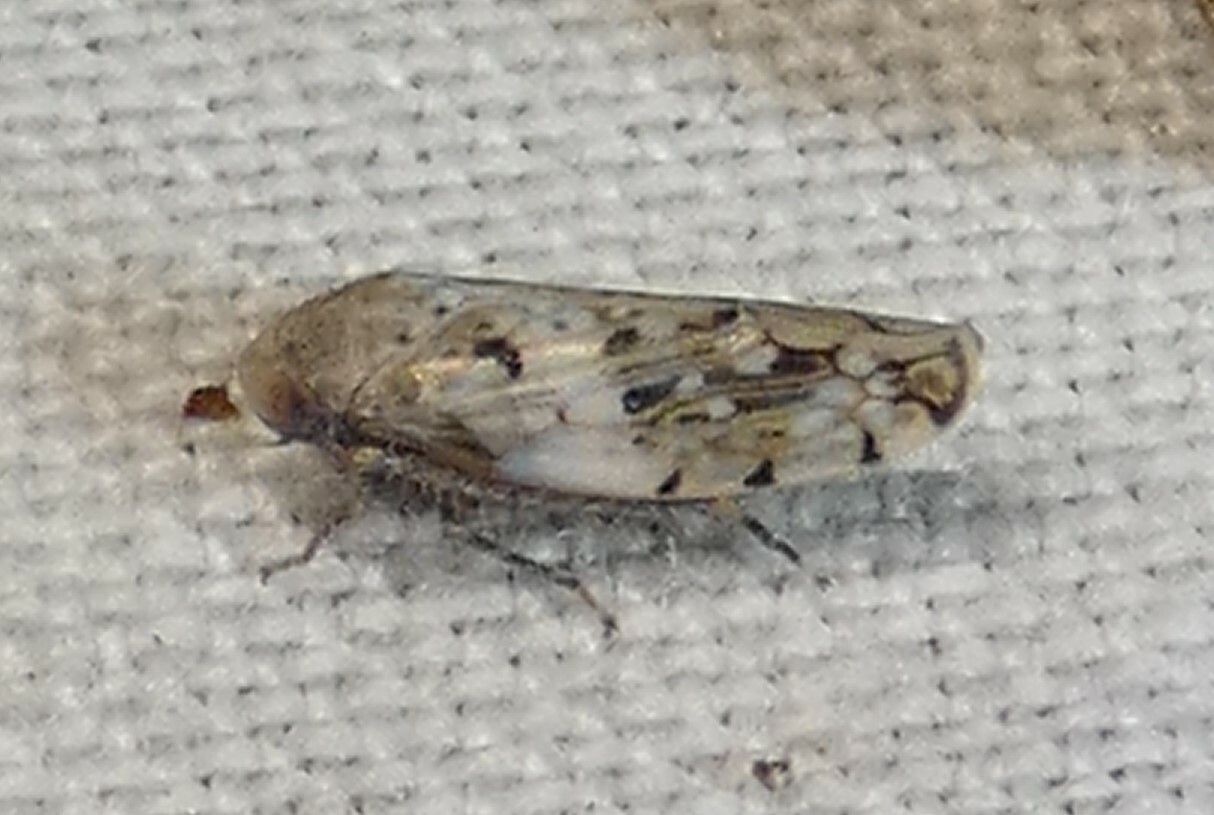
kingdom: Animalia
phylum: Arthropoda
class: Insecta
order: Hemiptera
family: Cicadellidae
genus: Menosoma
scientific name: Menosoma cinctum
